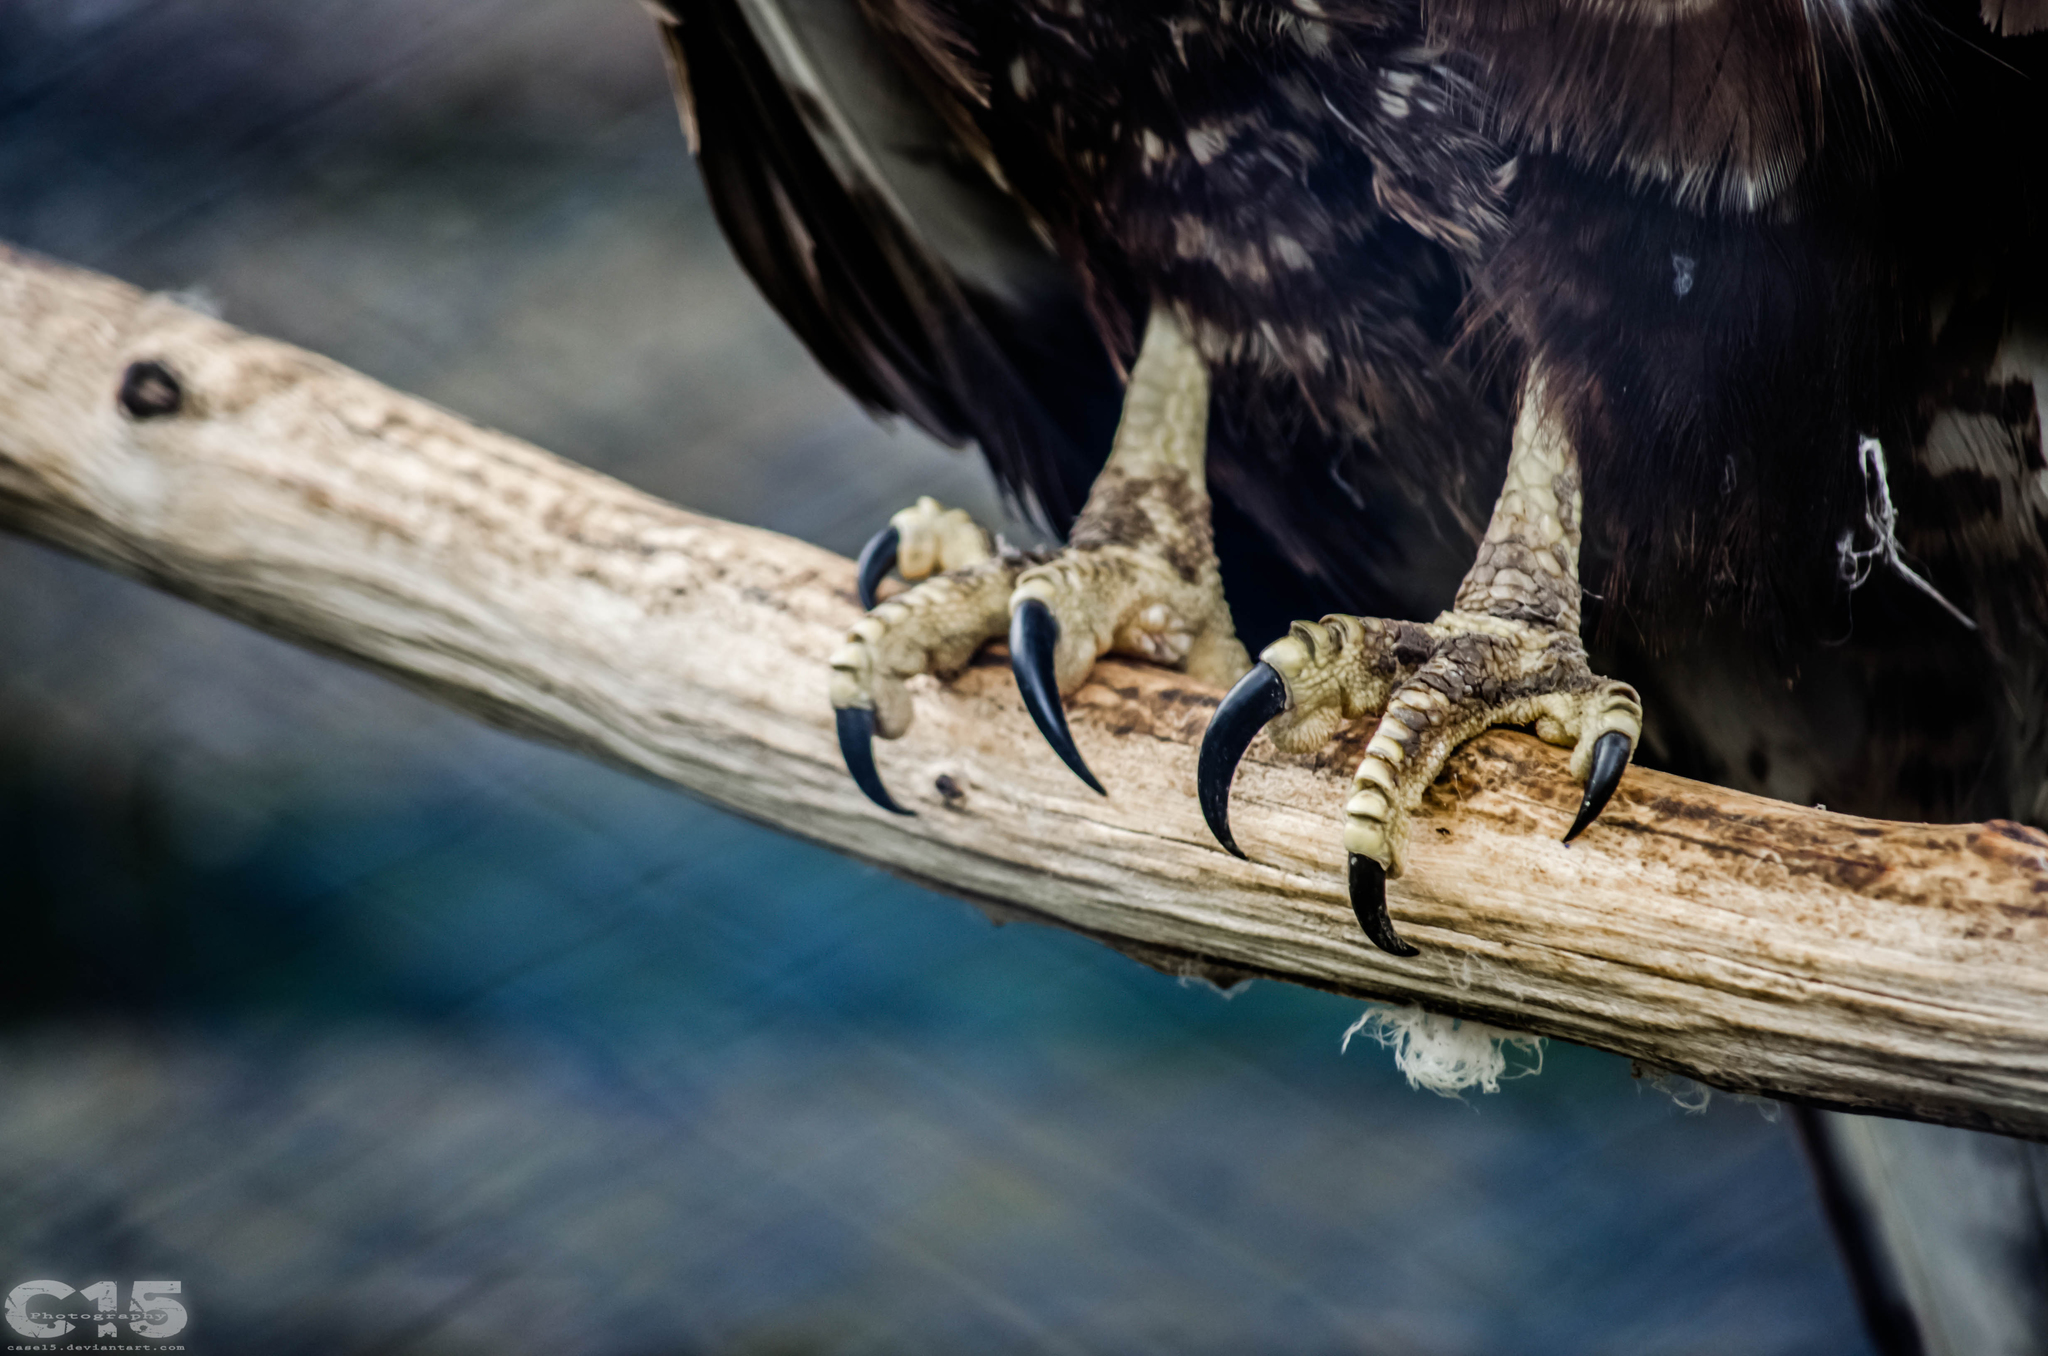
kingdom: Animalia
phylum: Chordata
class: Aves
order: Accipitriformes
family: Accipitridae
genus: Buteo
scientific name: Buteo buteo
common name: Common buzzard
